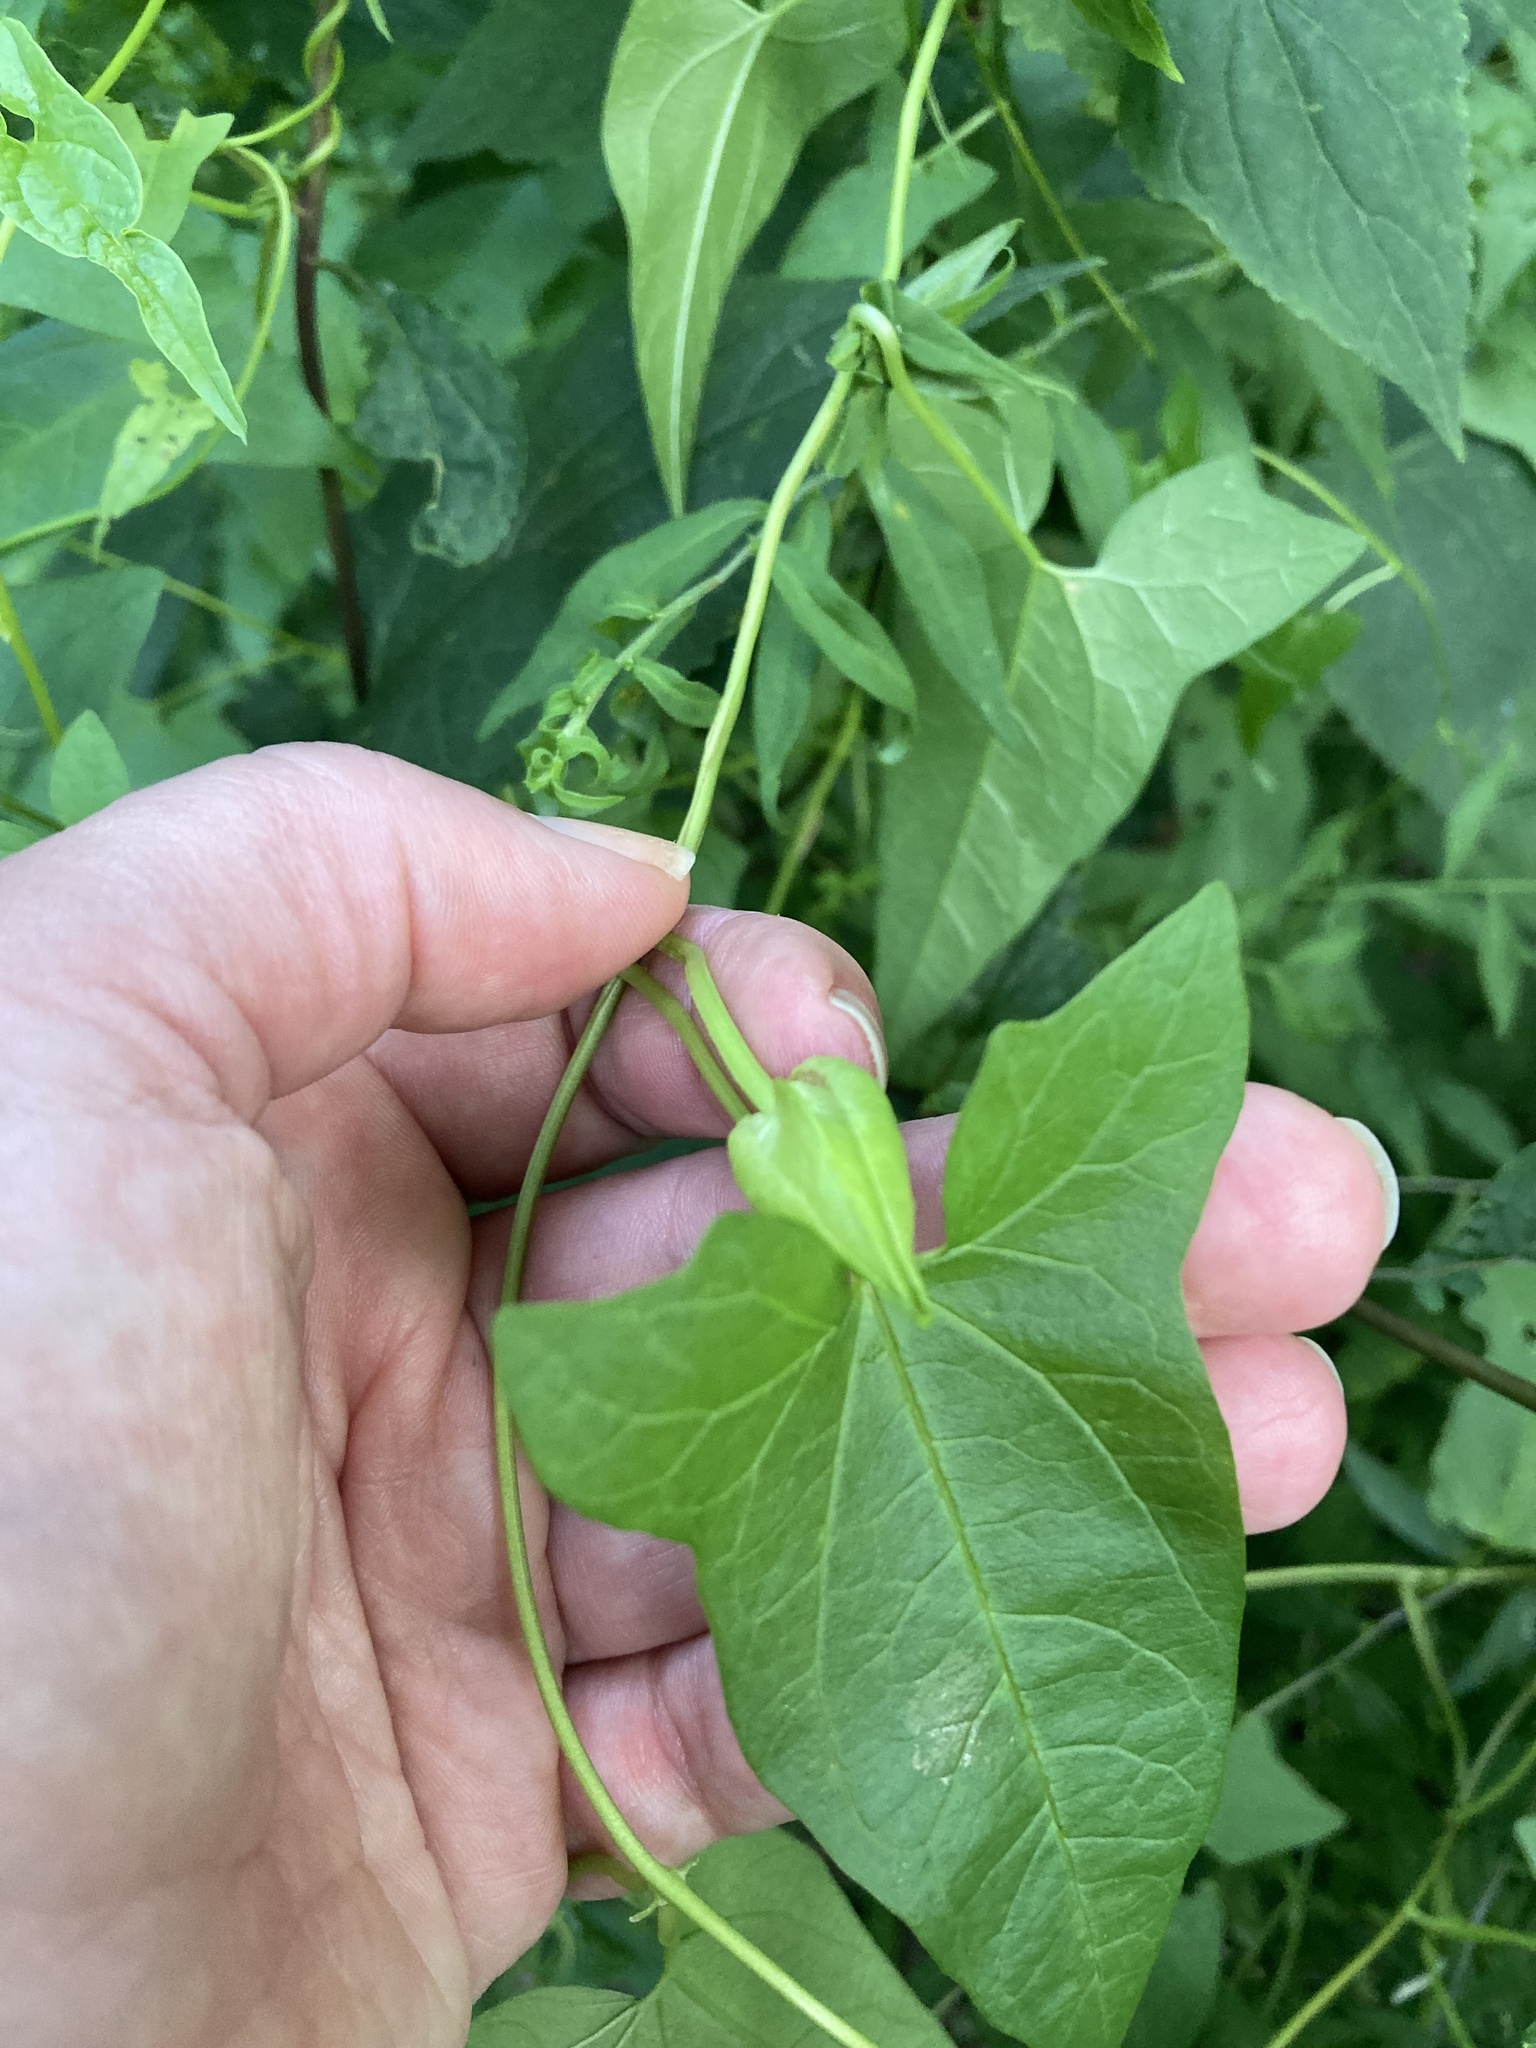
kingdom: Plantae
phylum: Tracheophyta
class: Magnoliopsida
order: Solanales
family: Convolvulaceae
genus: Calystegia
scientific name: Calystegia sepium
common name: Hedge bindweed
